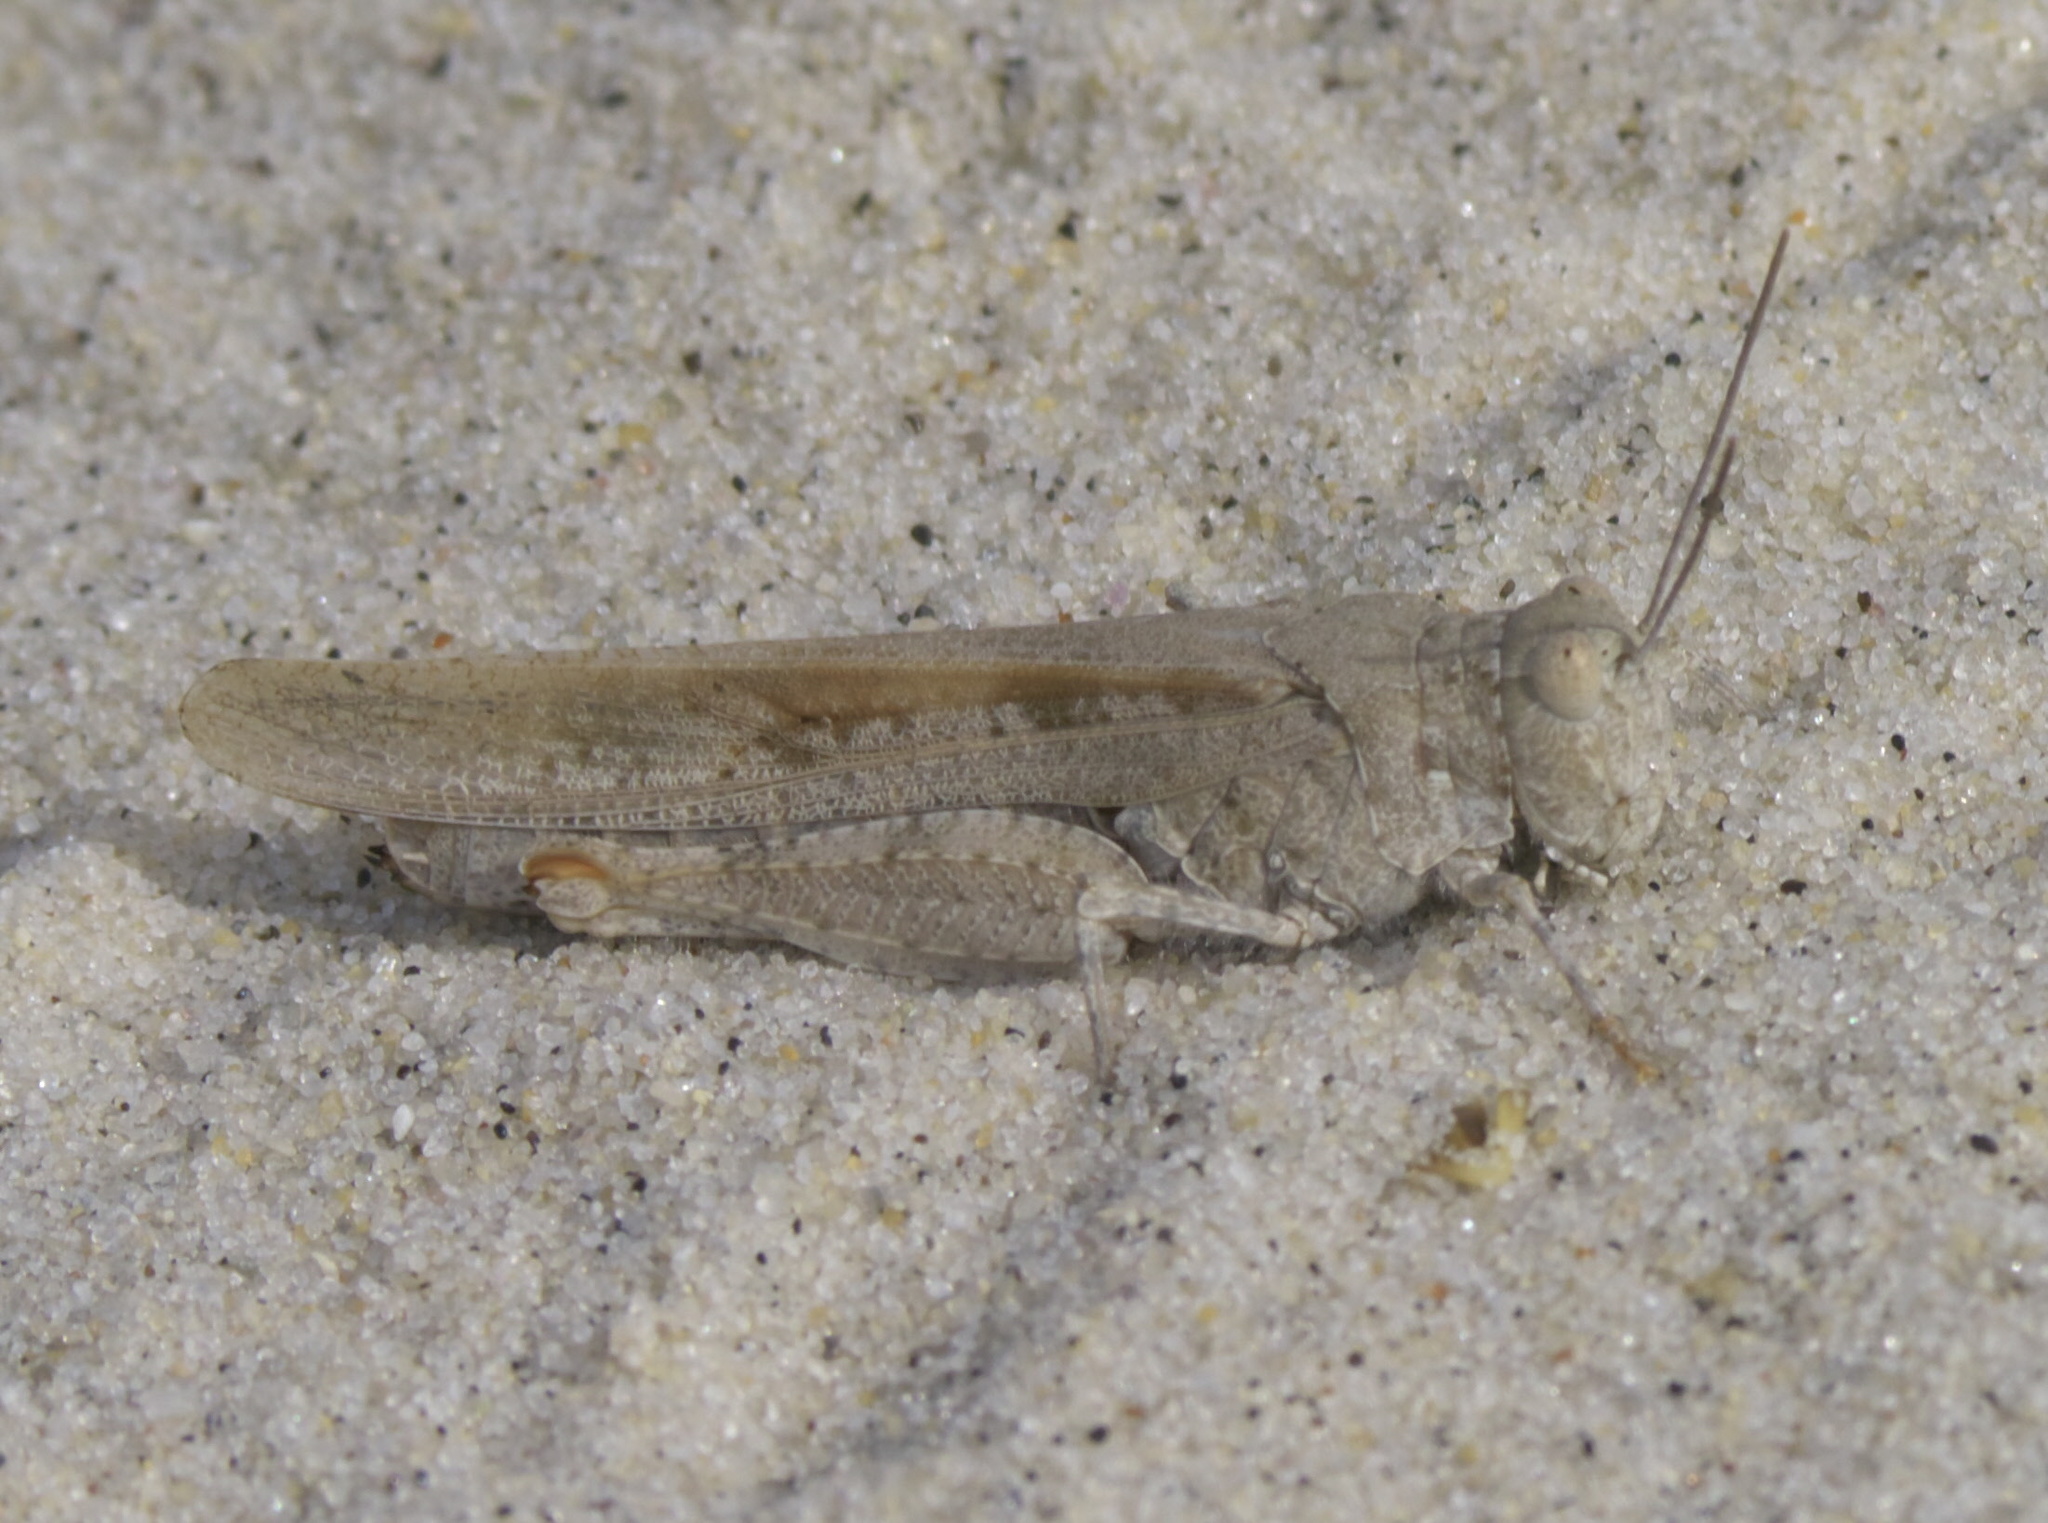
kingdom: Animalia
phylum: Arthropoda
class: Insecta
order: Orthoptera
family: Acrididae
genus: Trimerotropis
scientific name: Trimerotropis maritima
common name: Seaside locust
